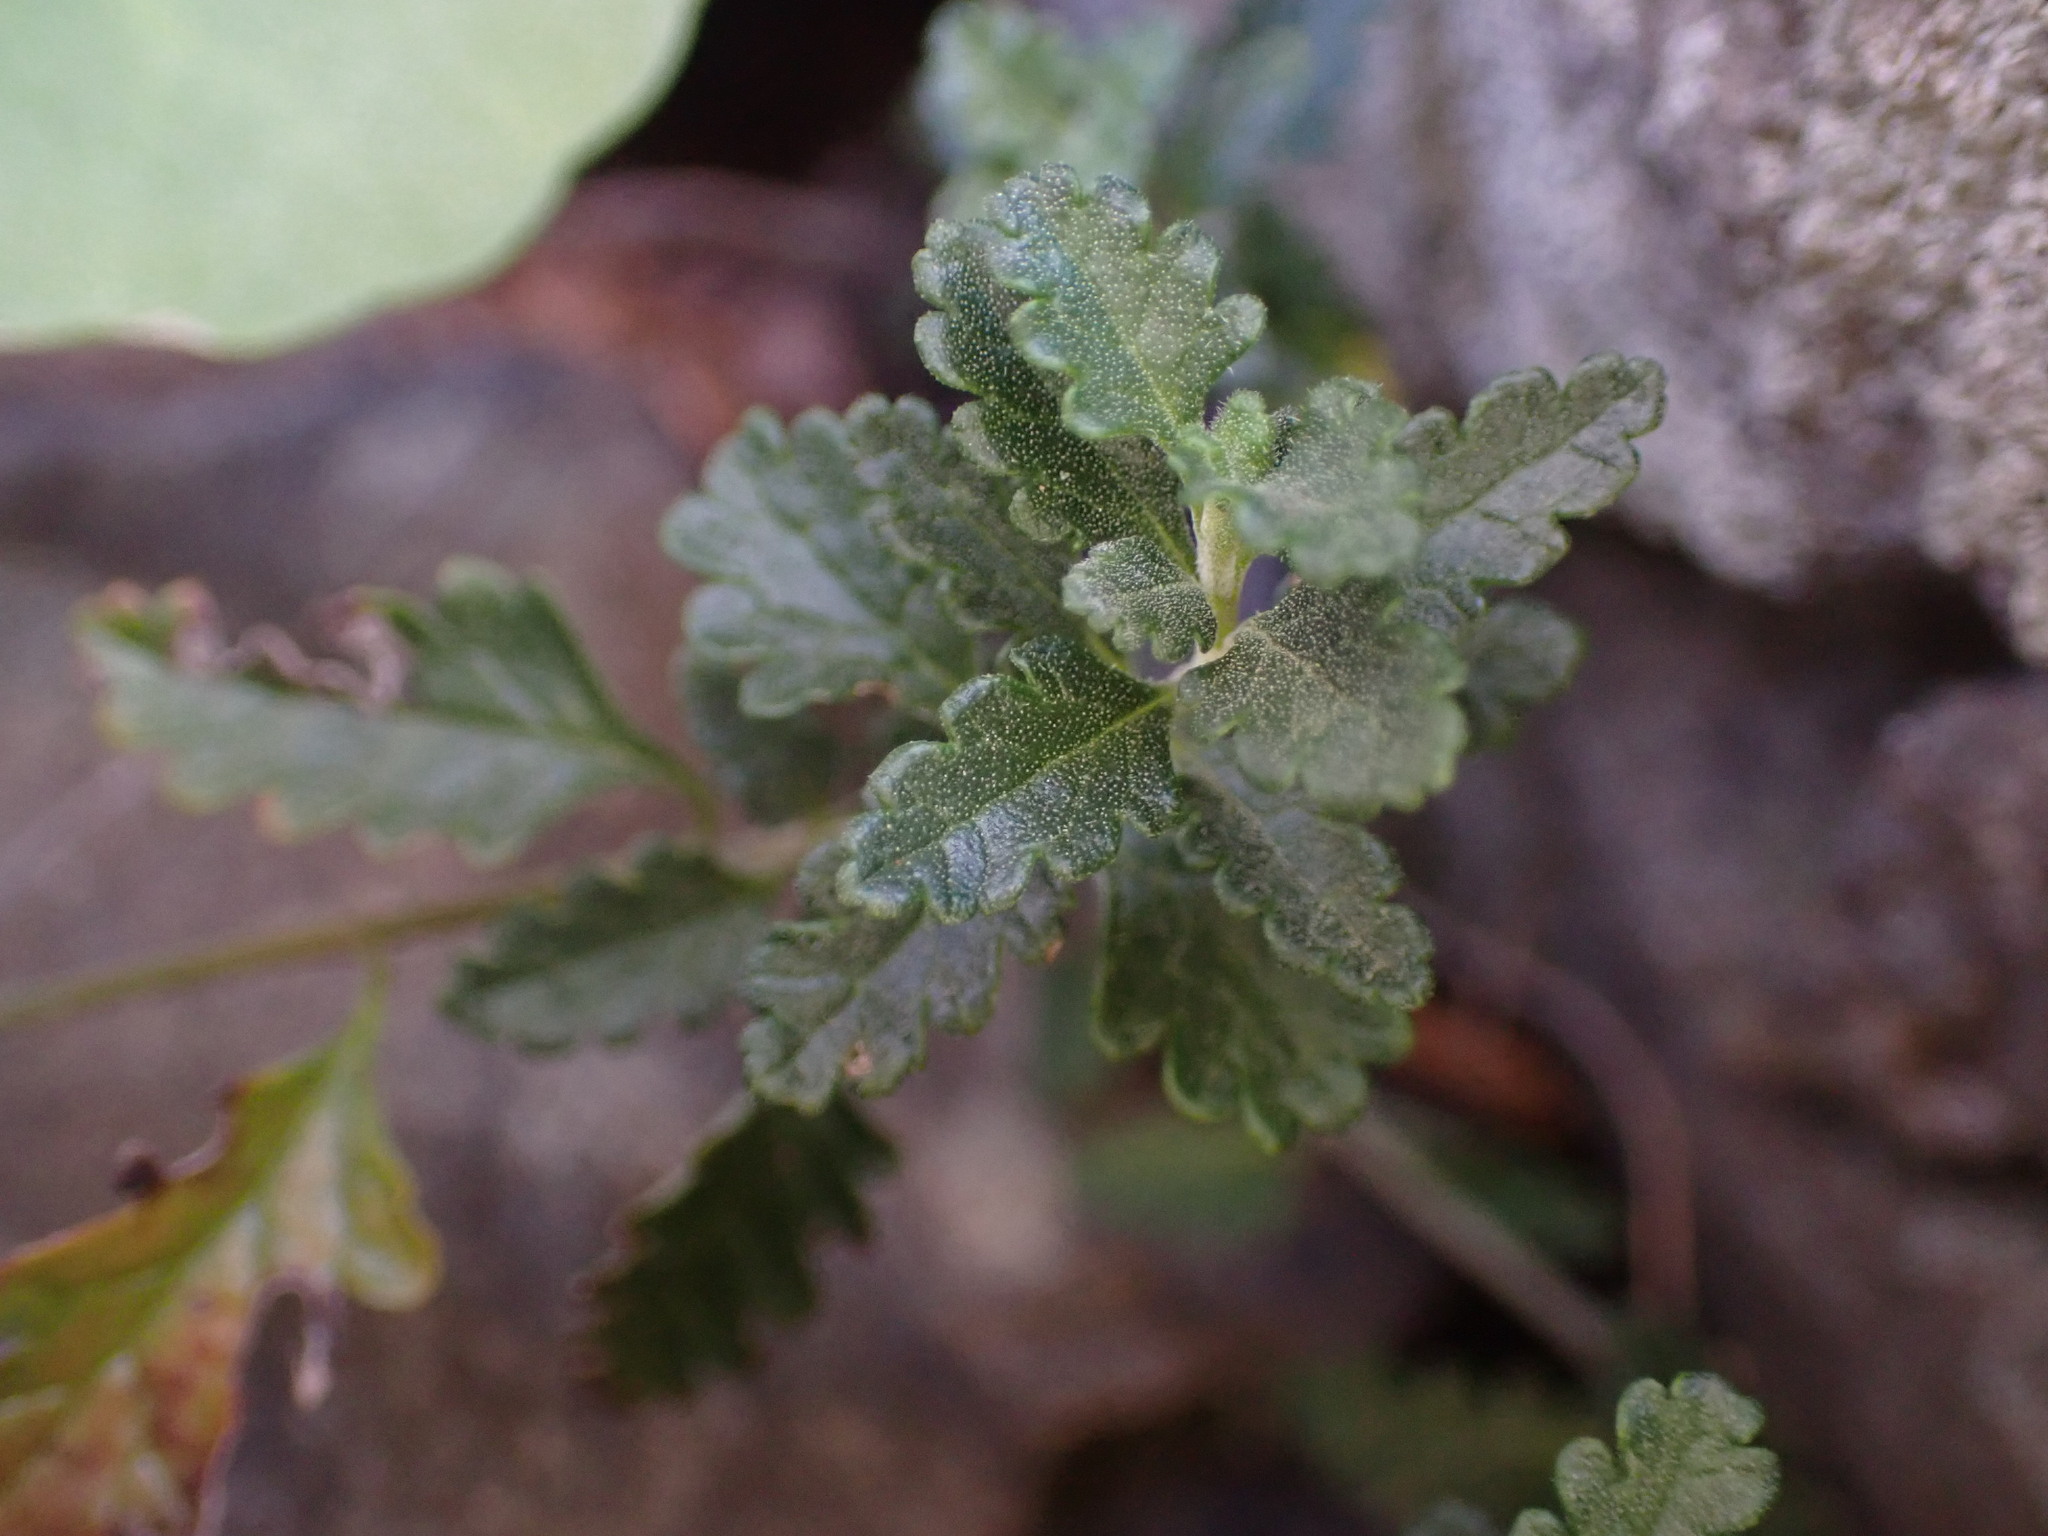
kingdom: Plantae
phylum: Tracheophyta
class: Magnoliopsida
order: Lamiales
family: Lamiaceae
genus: Teucrium
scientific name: Teucrium chamaedrys
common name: Wall germander
